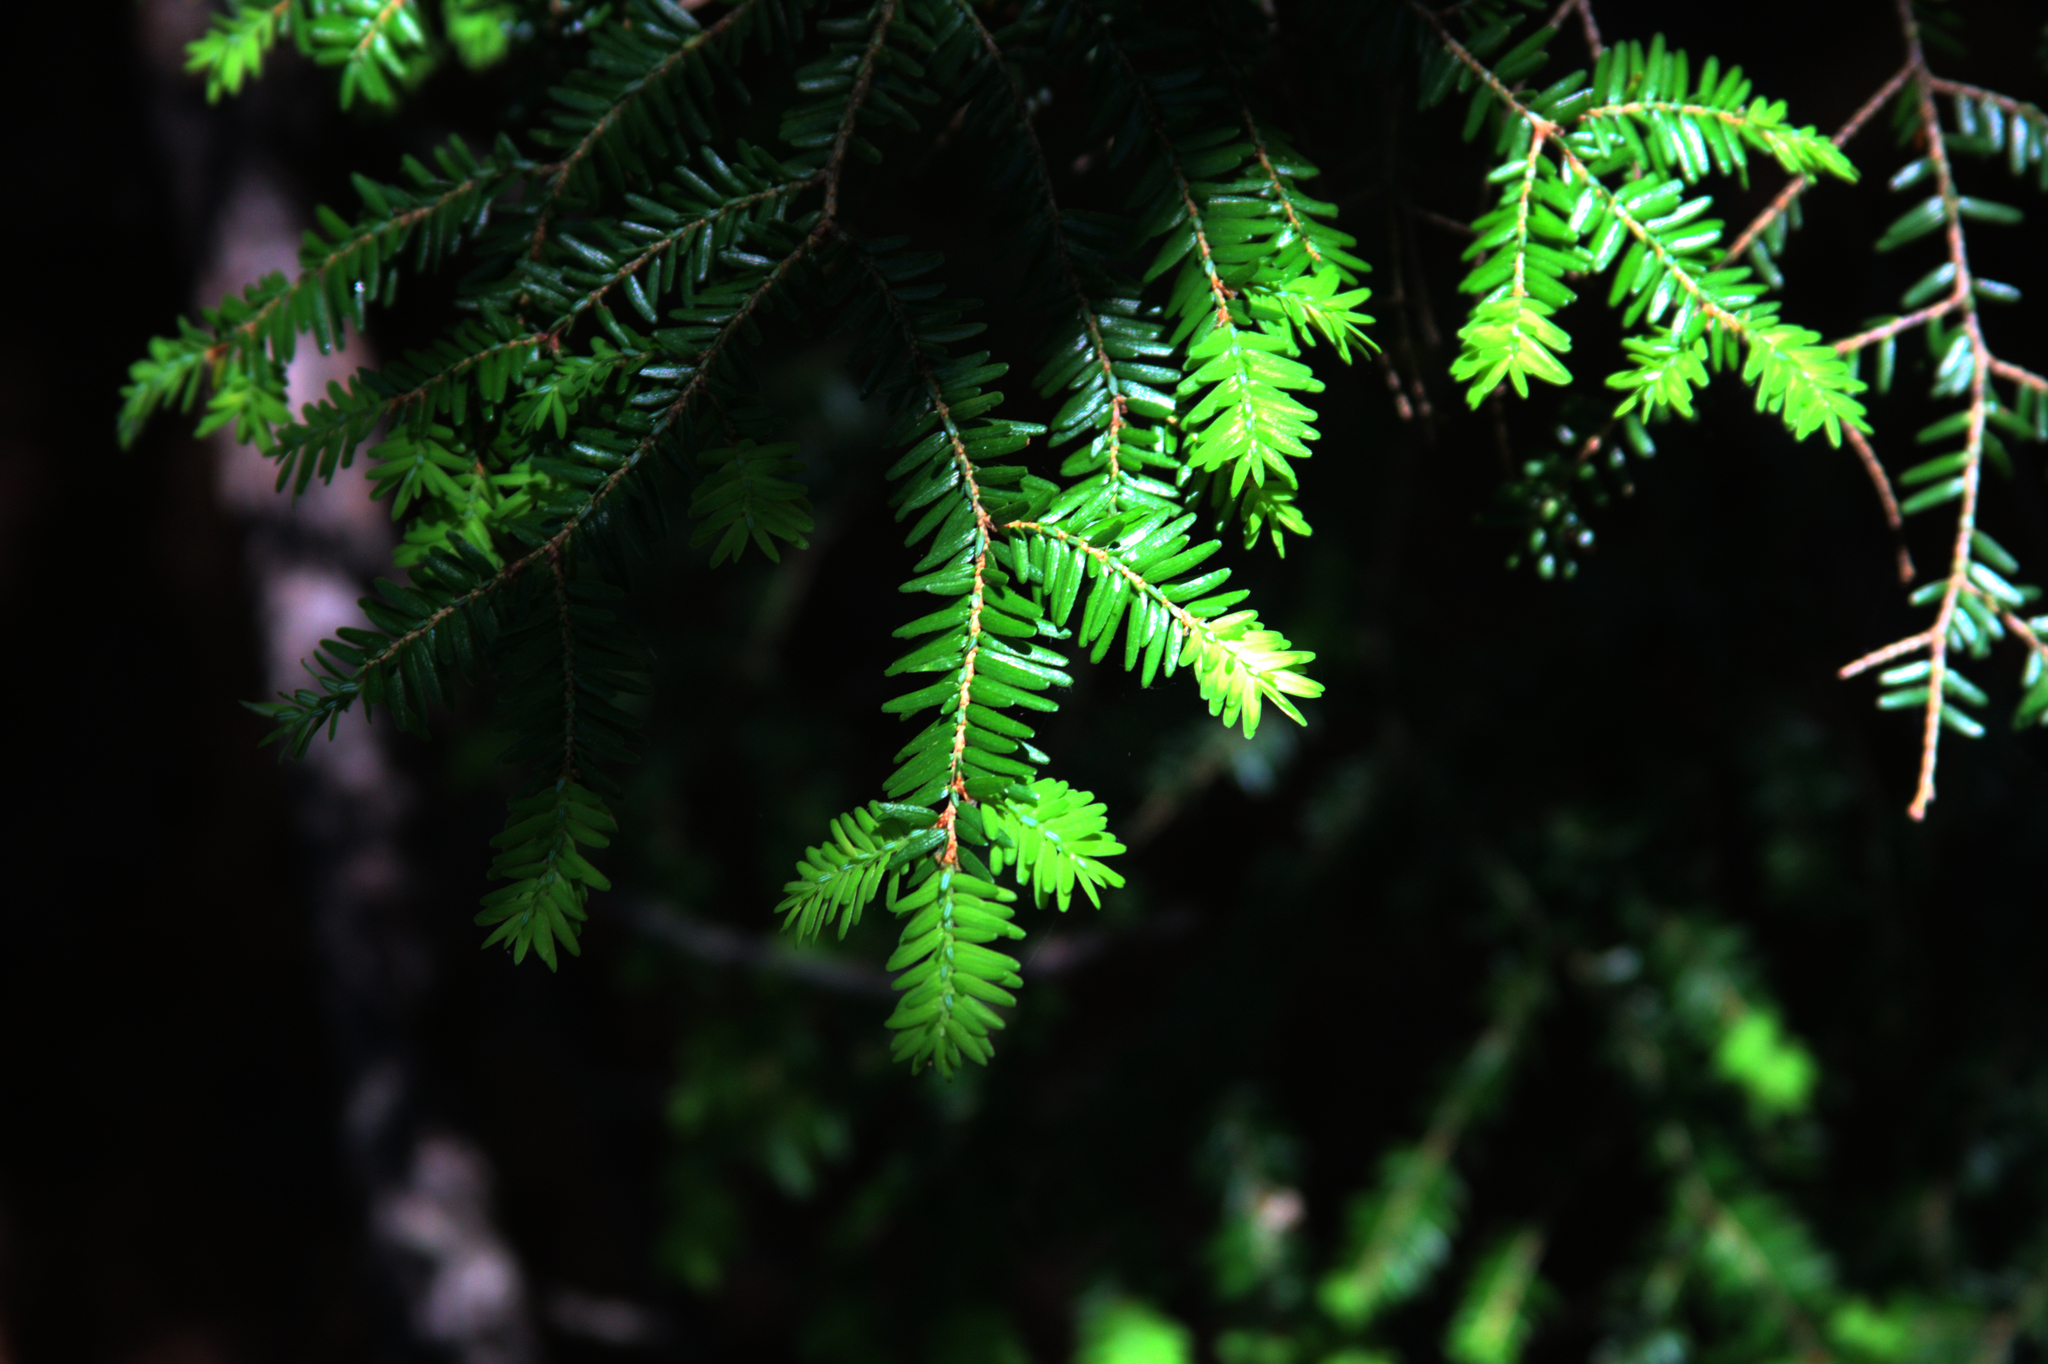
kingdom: Plantae
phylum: Tracheophyta
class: Pinopsida
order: Pinales
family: Pinaceae
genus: Tsuga
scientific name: Tsuga canadensis
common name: Eastern hemlock
